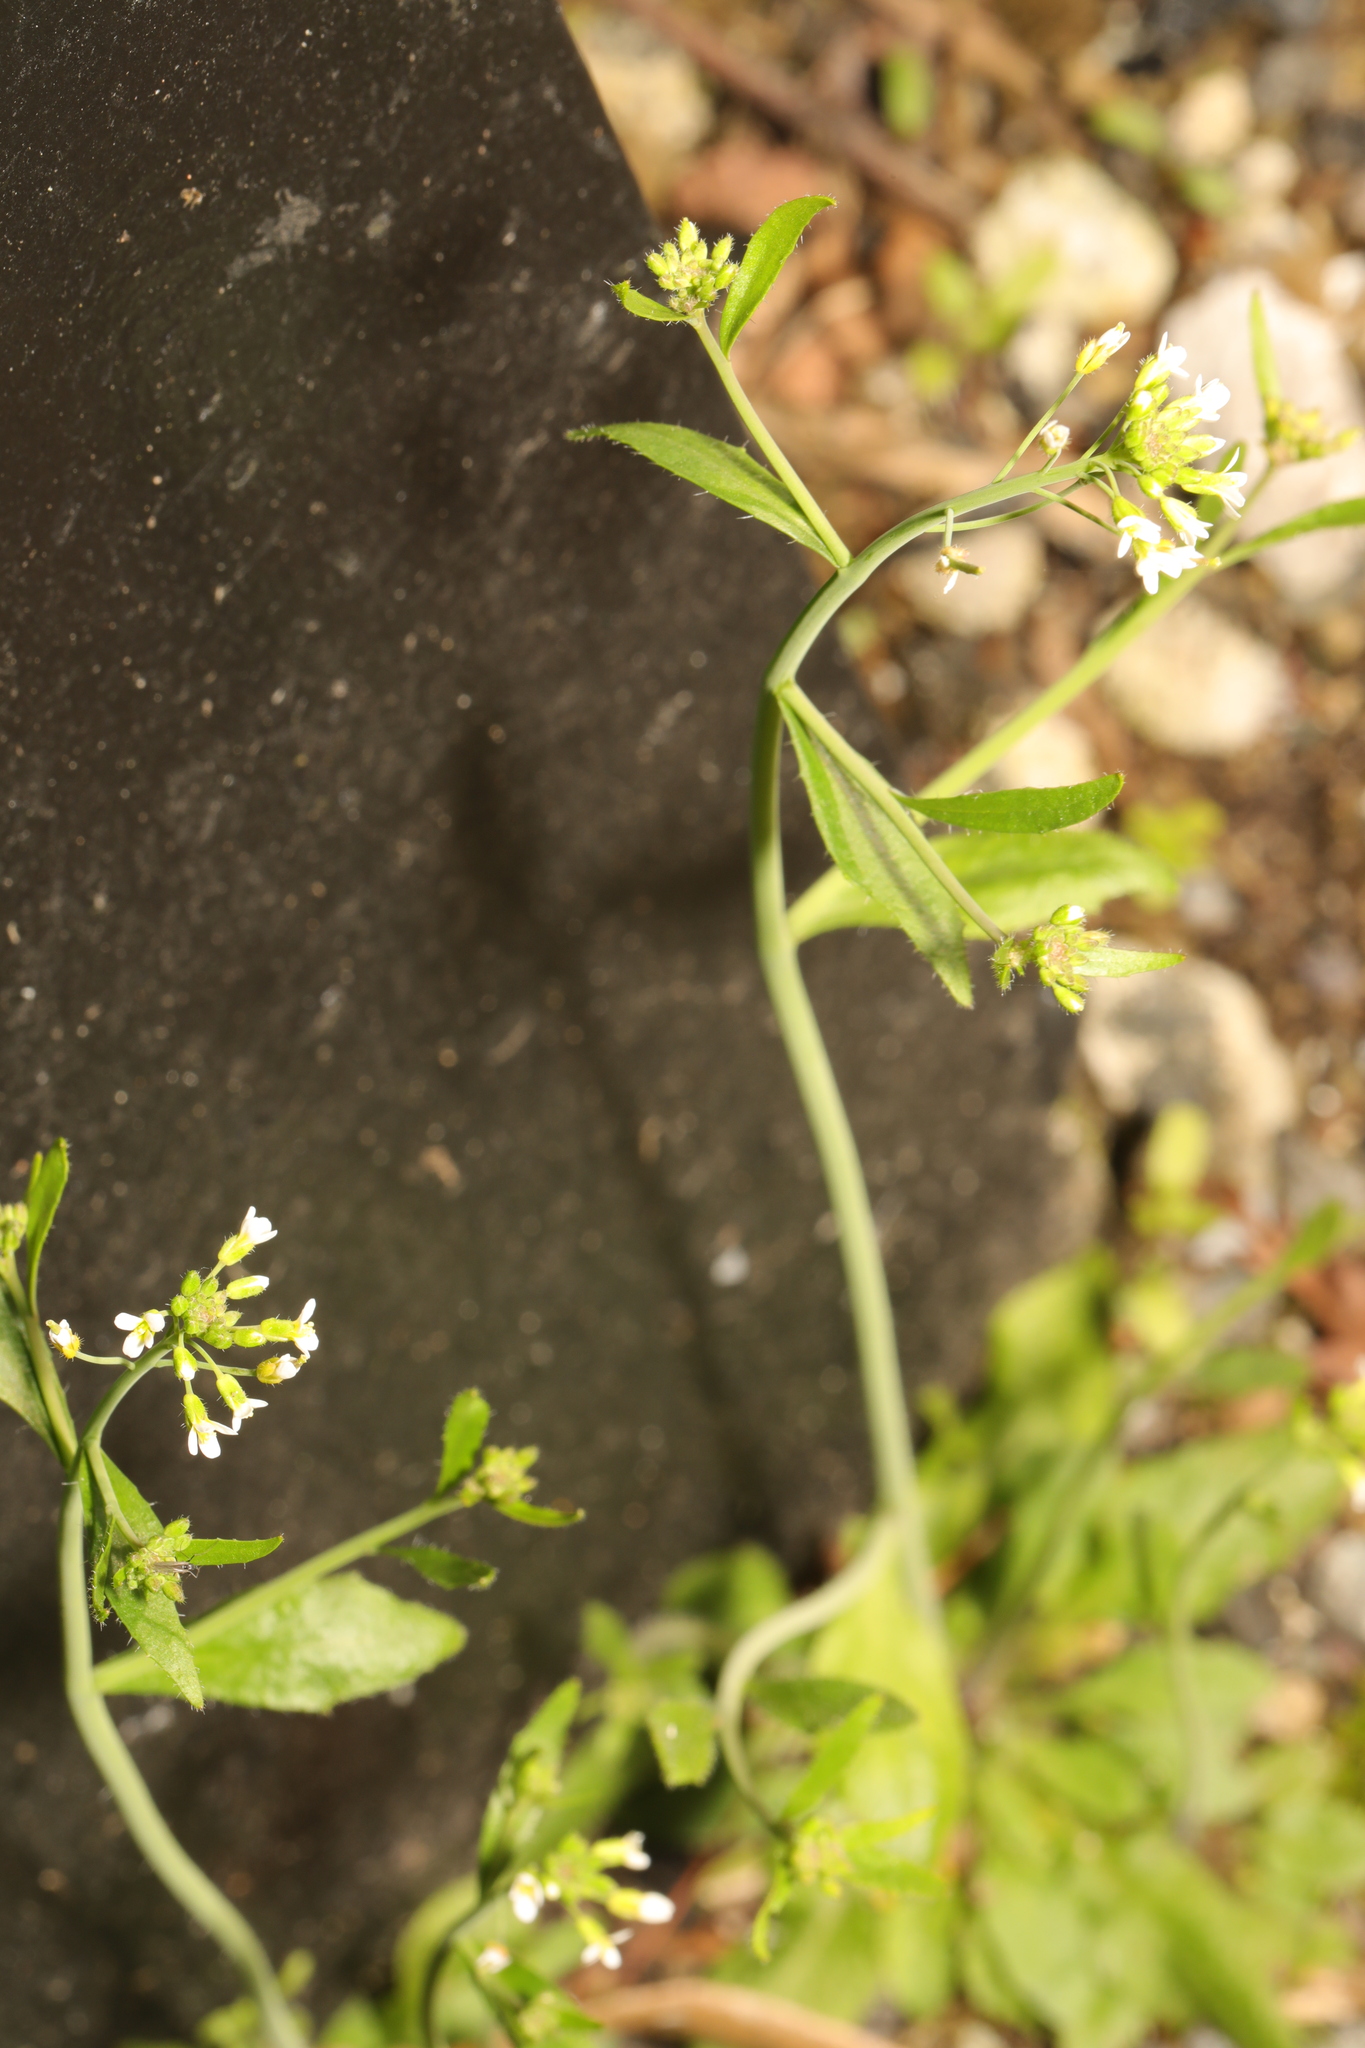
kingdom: Plantae
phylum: Tracheophyta
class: Magnoliopsida
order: Brassicales
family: Brassicaceae
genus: Arabidopsis
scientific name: Arabidopsis thaliana
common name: Thale cress
